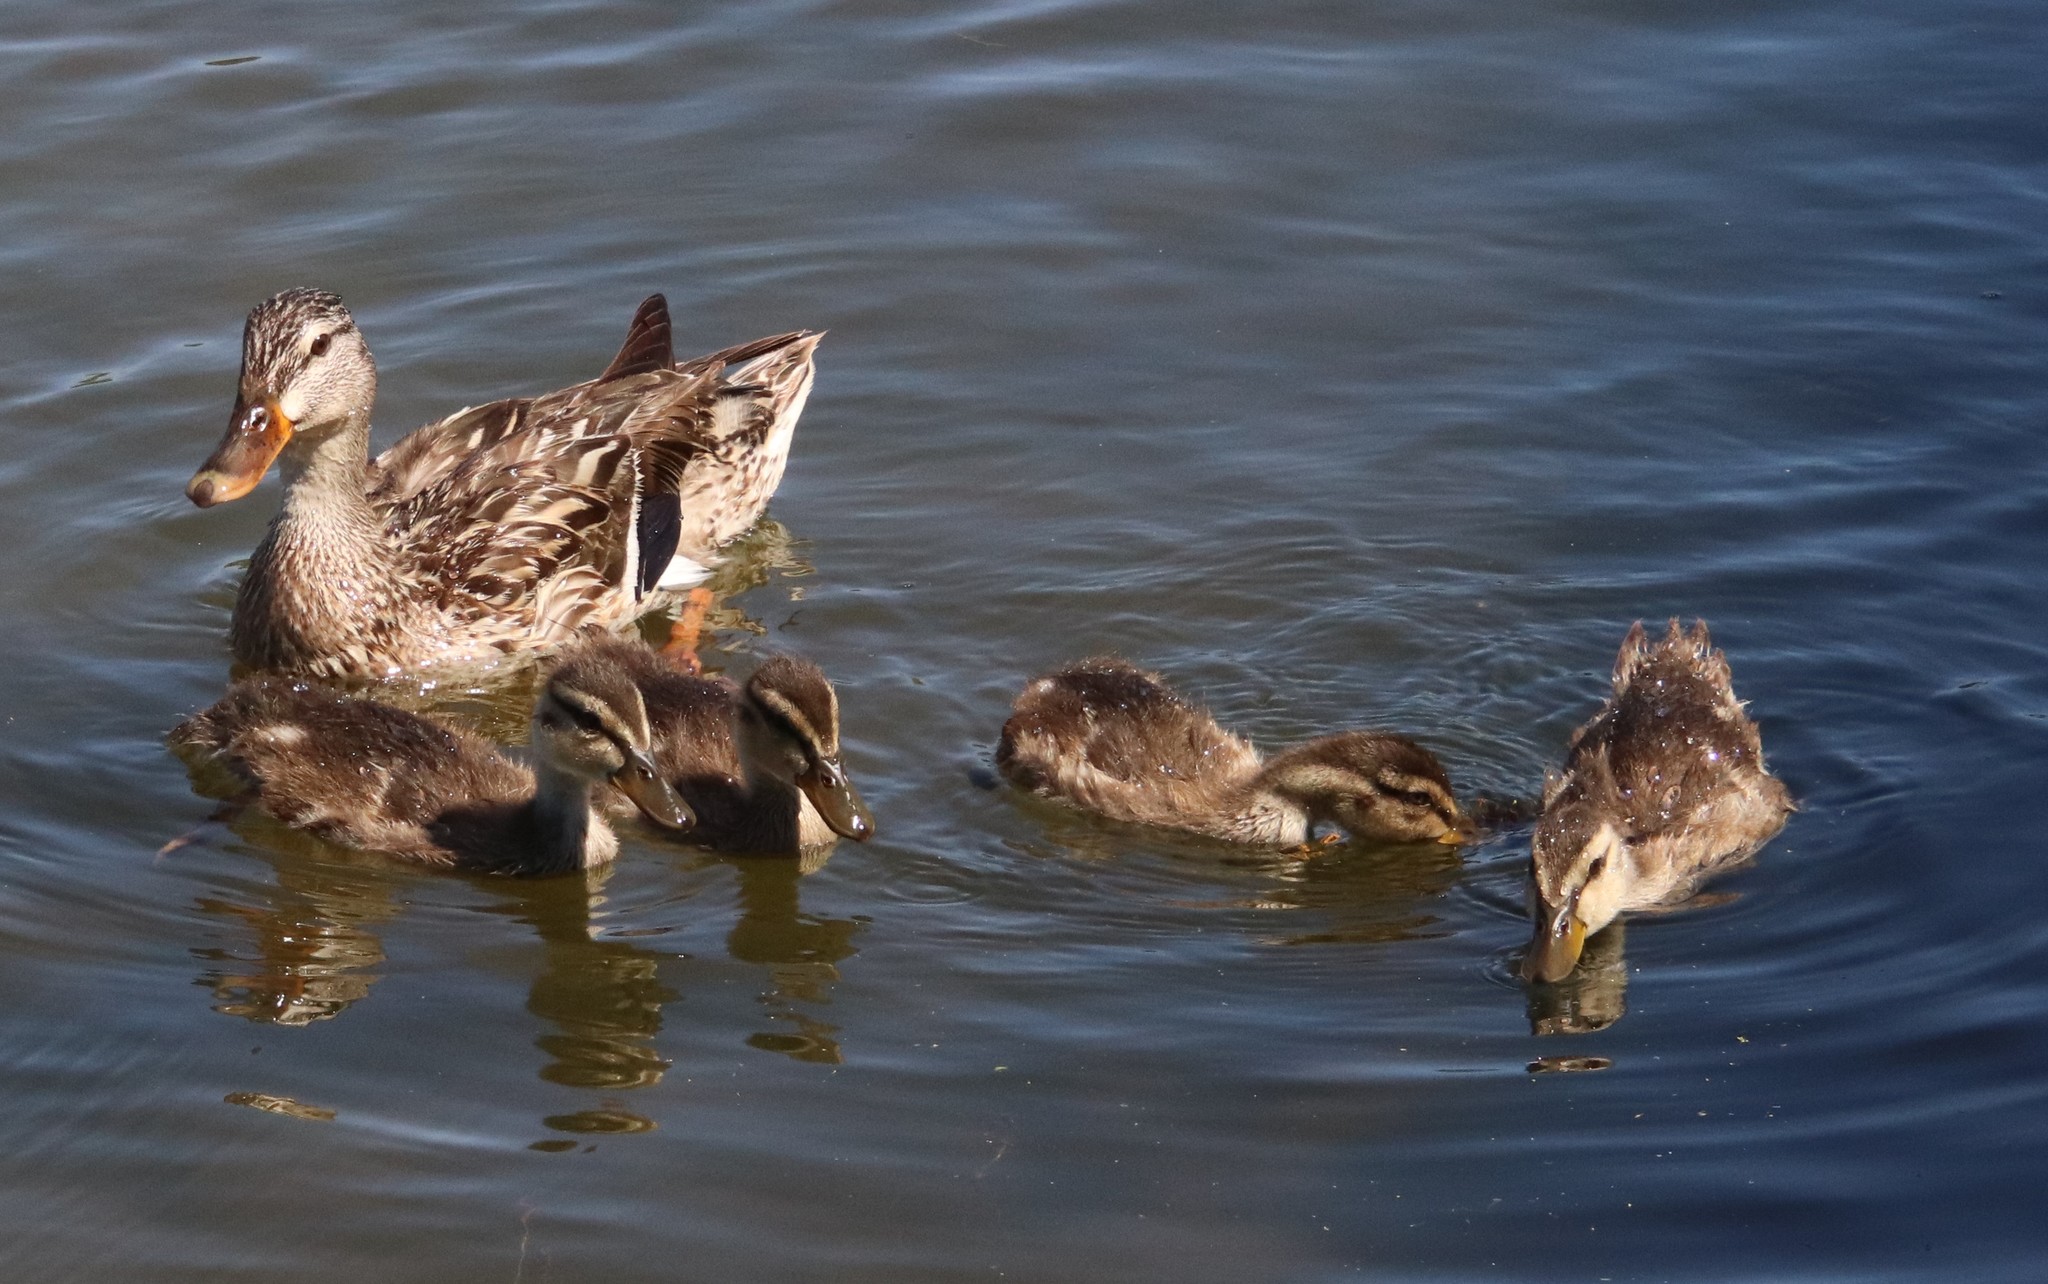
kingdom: Animalia
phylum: Chordata
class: Aves
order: Anseriformes
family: Anatidae
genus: Anas
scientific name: Anas platyrhynchos
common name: Mallard
